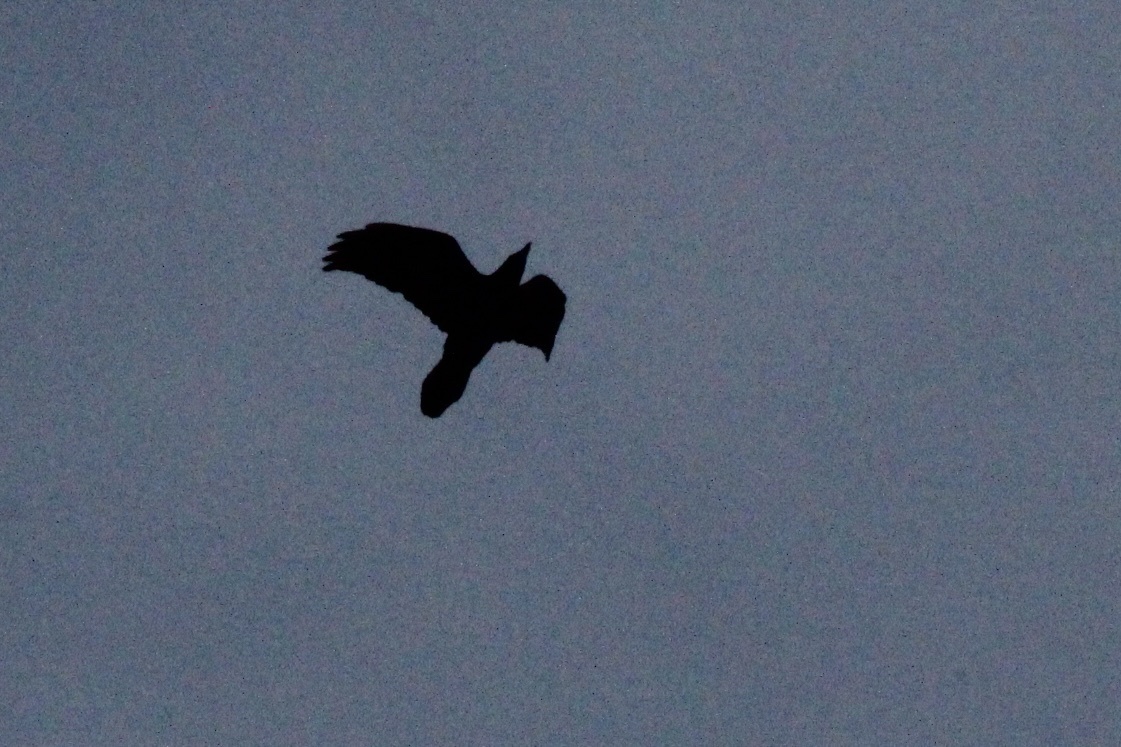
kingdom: Animalia
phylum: Chordata
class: Aves
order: Passeriformes
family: Corvidae
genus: Corvus
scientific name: Corvus corax
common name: Common raven
